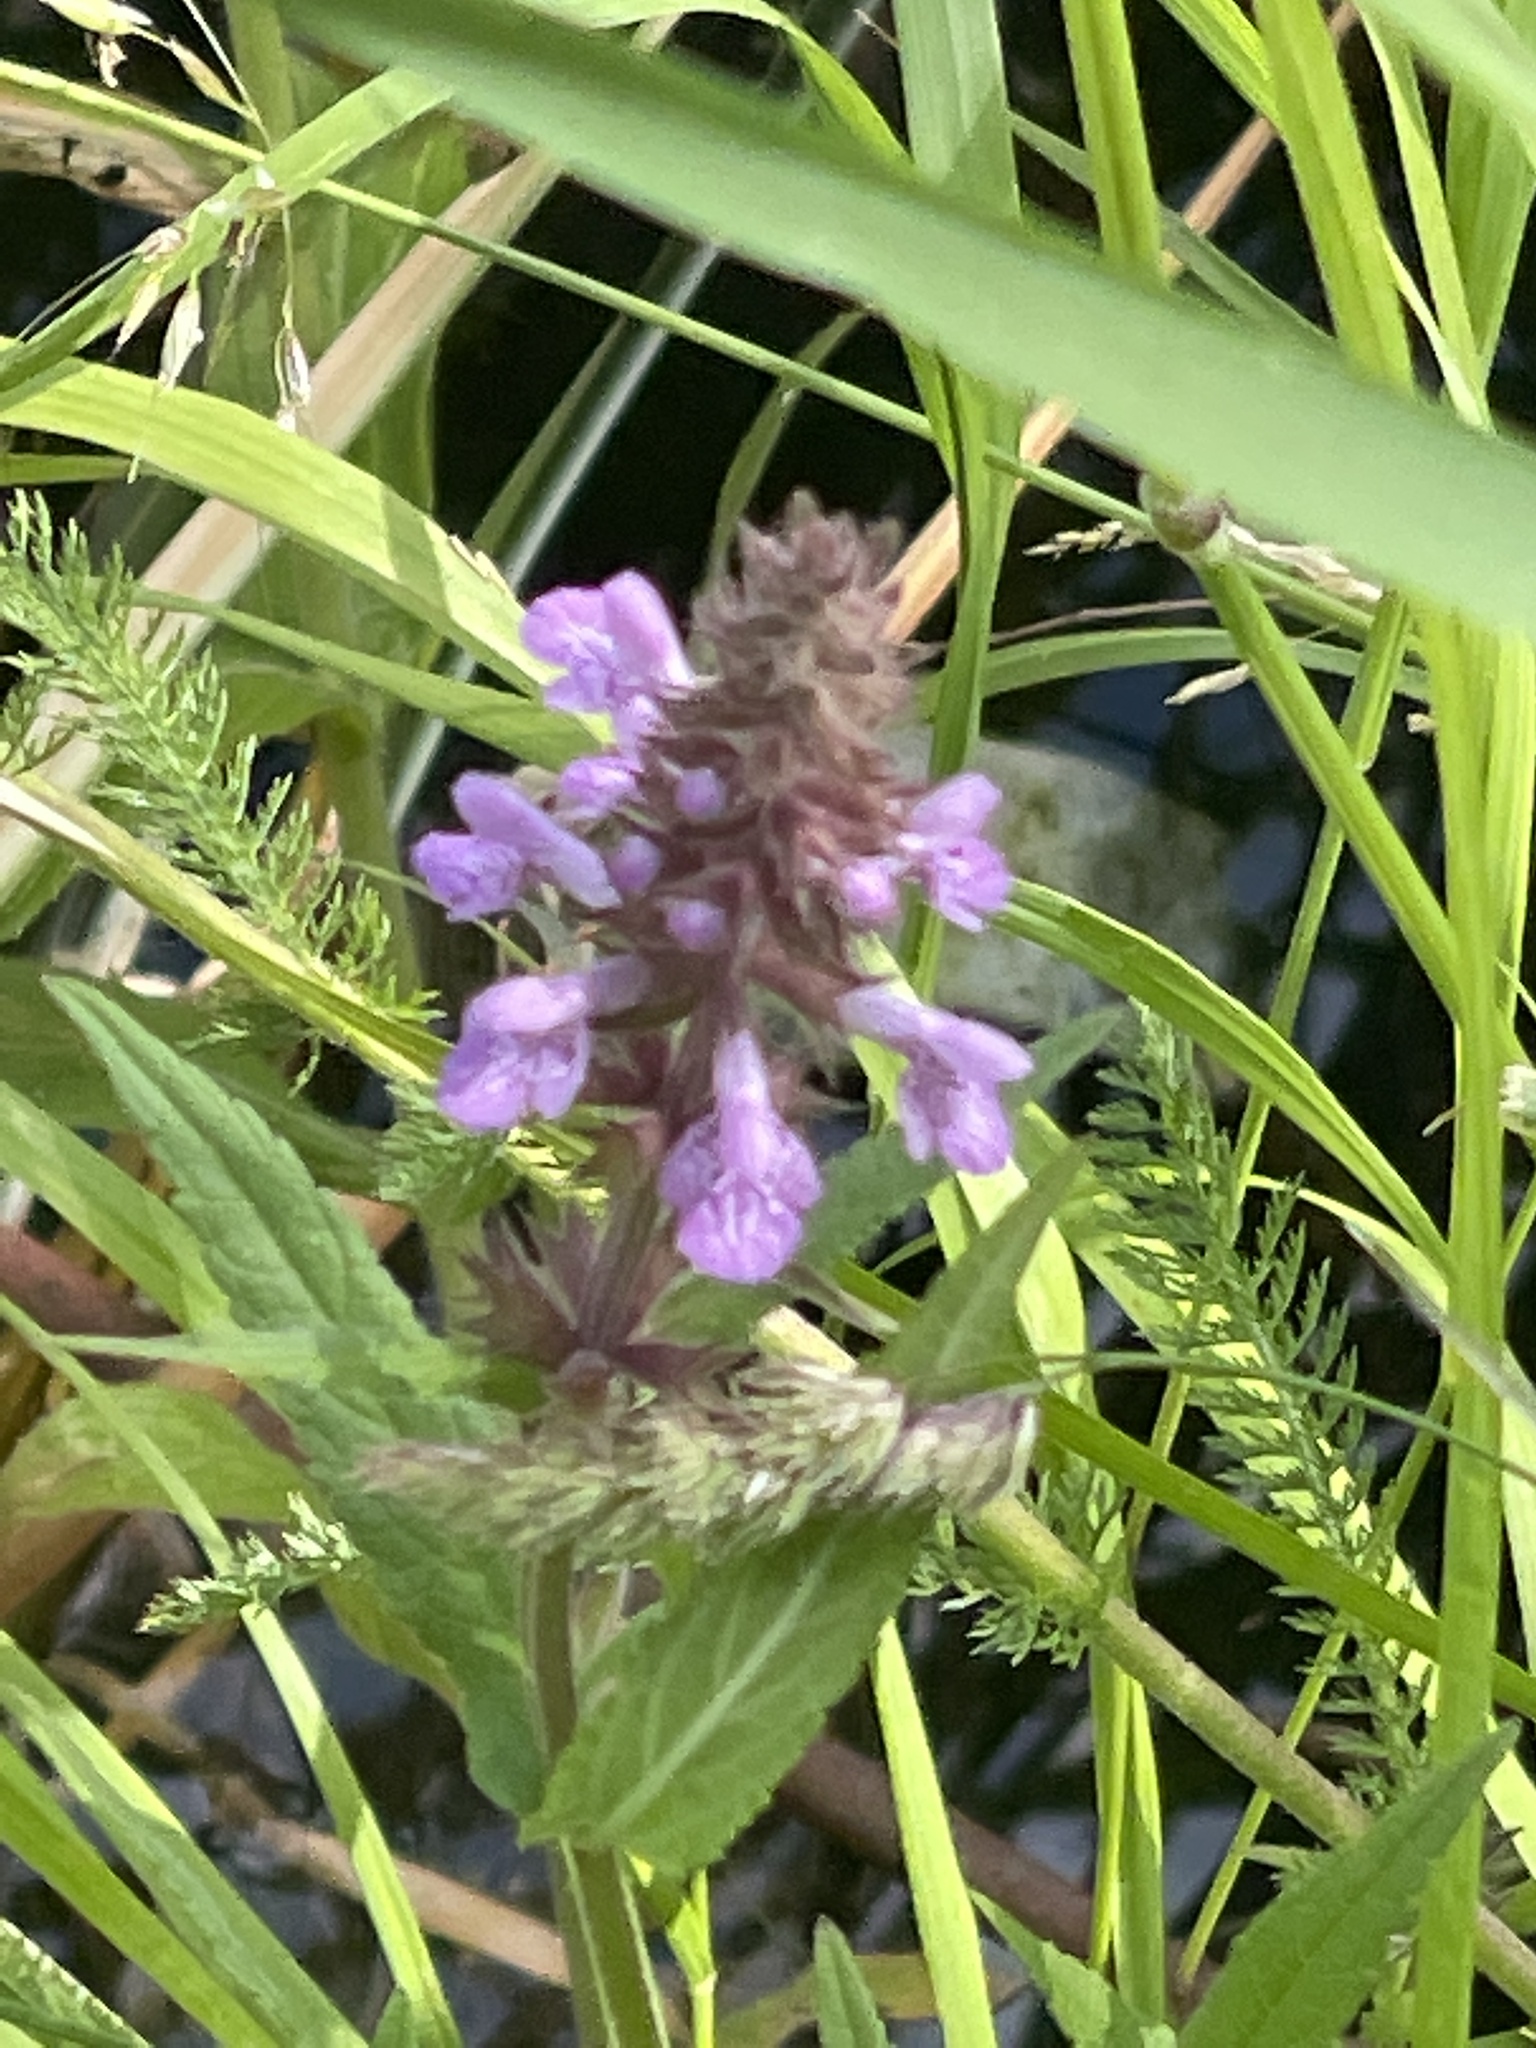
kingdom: Plantae
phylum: Tracheophyta
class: Magnoliopsida
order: Lamiales
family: Lamiaceae
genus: Stachys
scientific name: Stachys palustris
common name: Marsh woundwort
